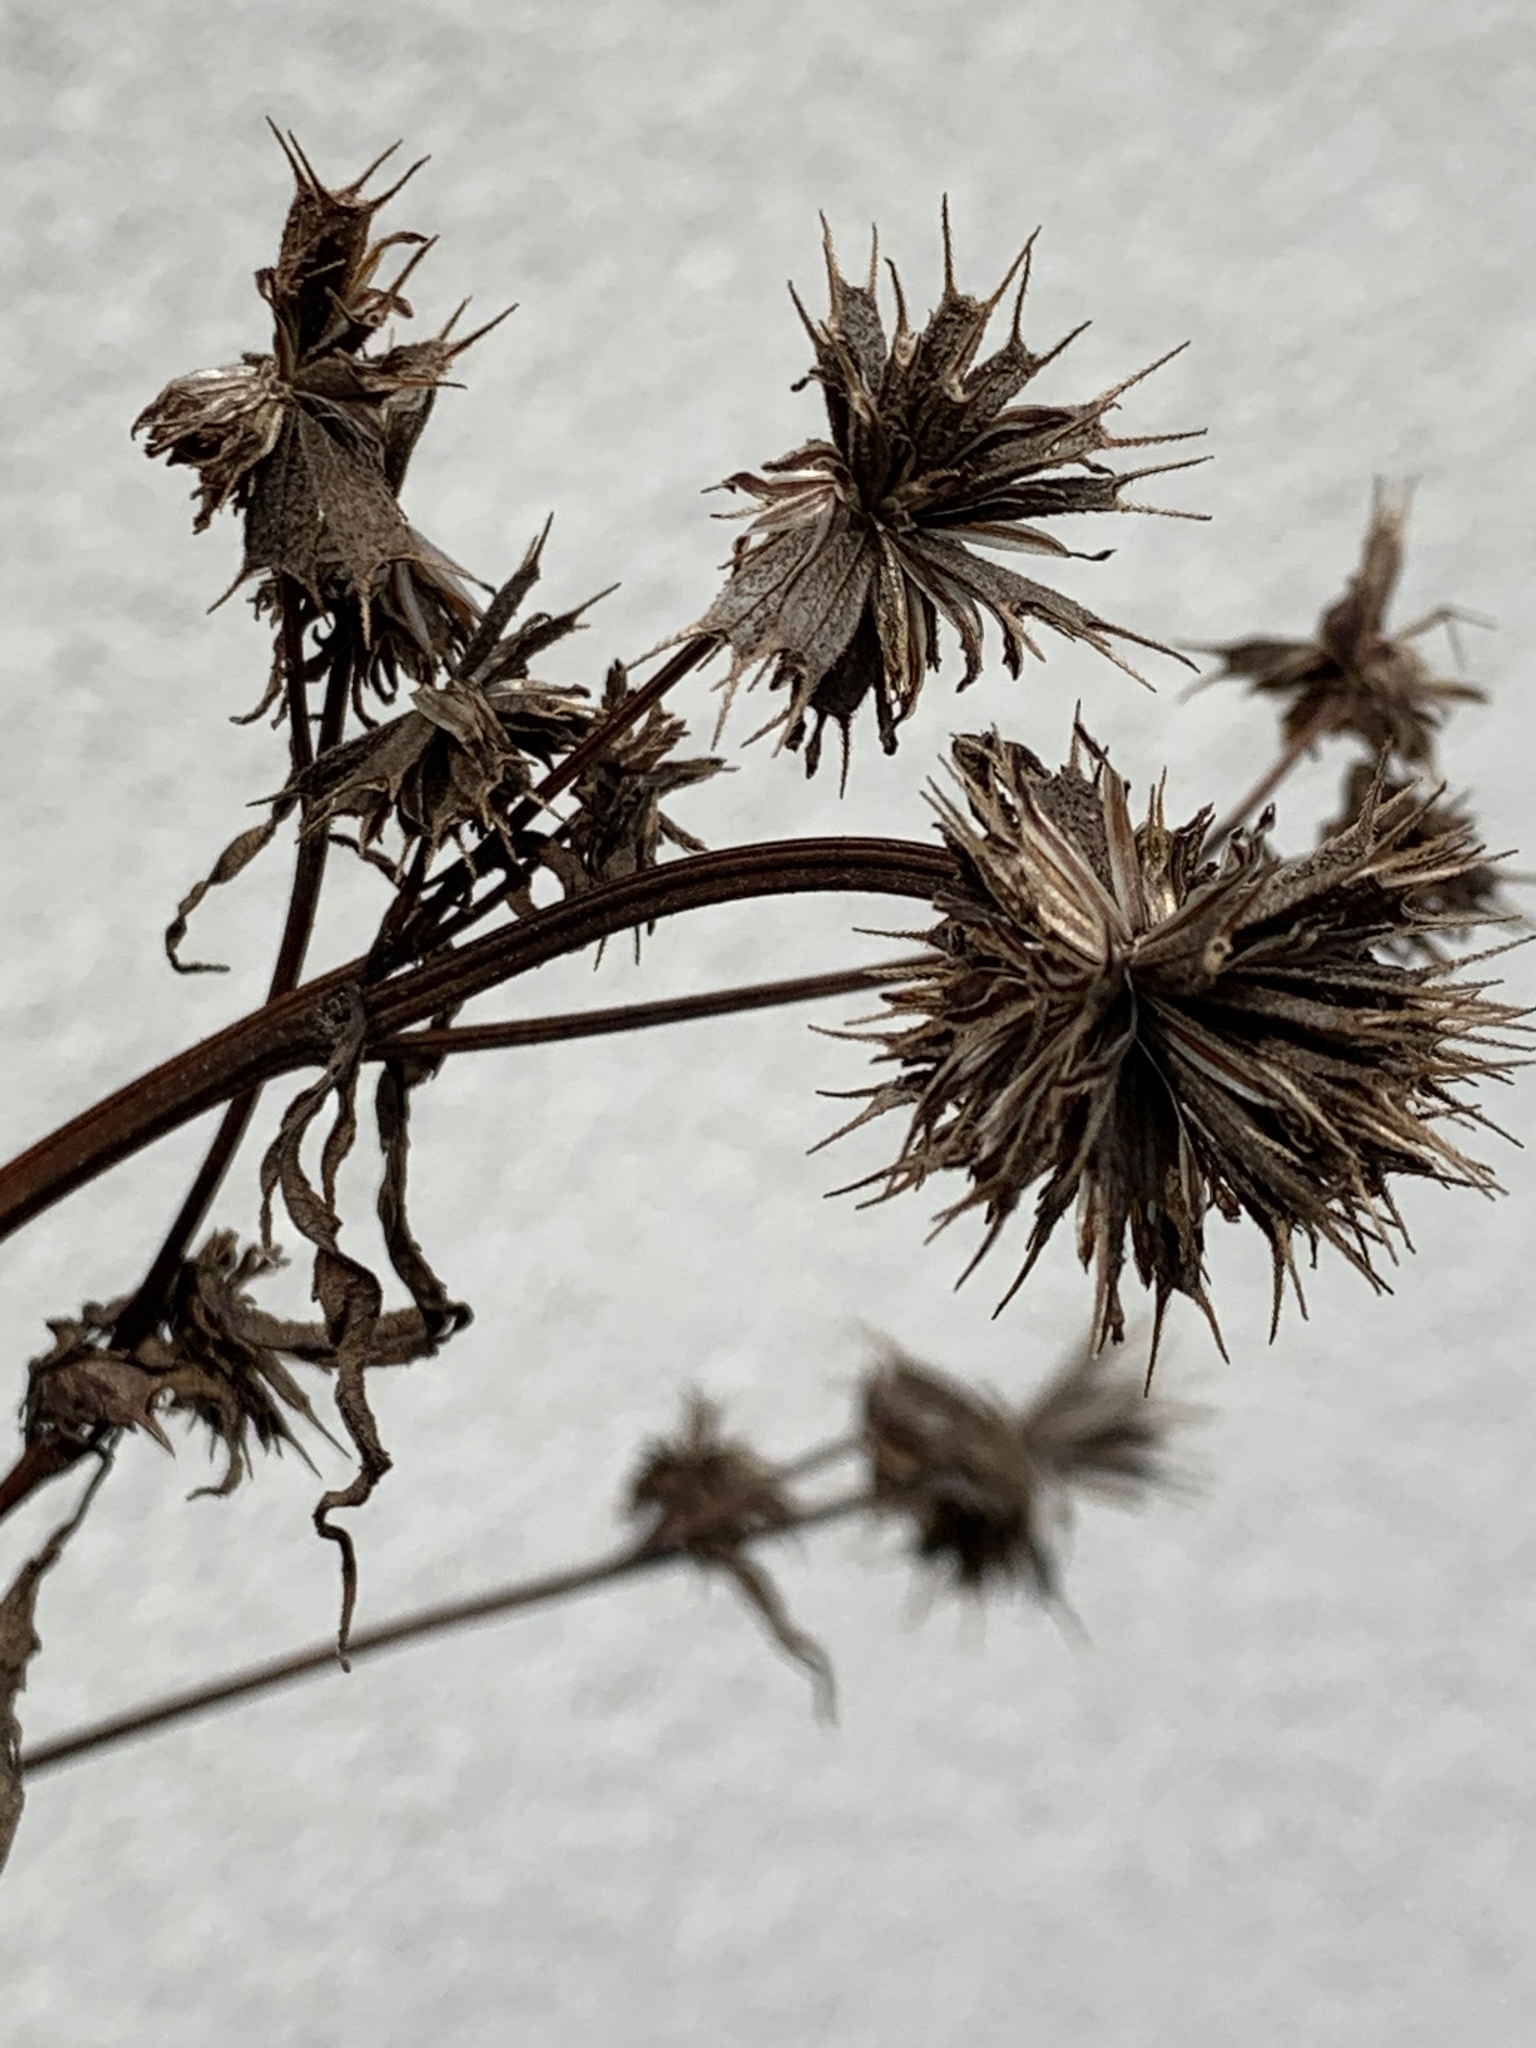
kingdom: Plantae
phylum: Tracheophyta
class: Magnoliopsida
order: Asterales
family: Asteraceae
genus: Bidens
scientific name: Bidens frondosa
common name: Beggarticks
